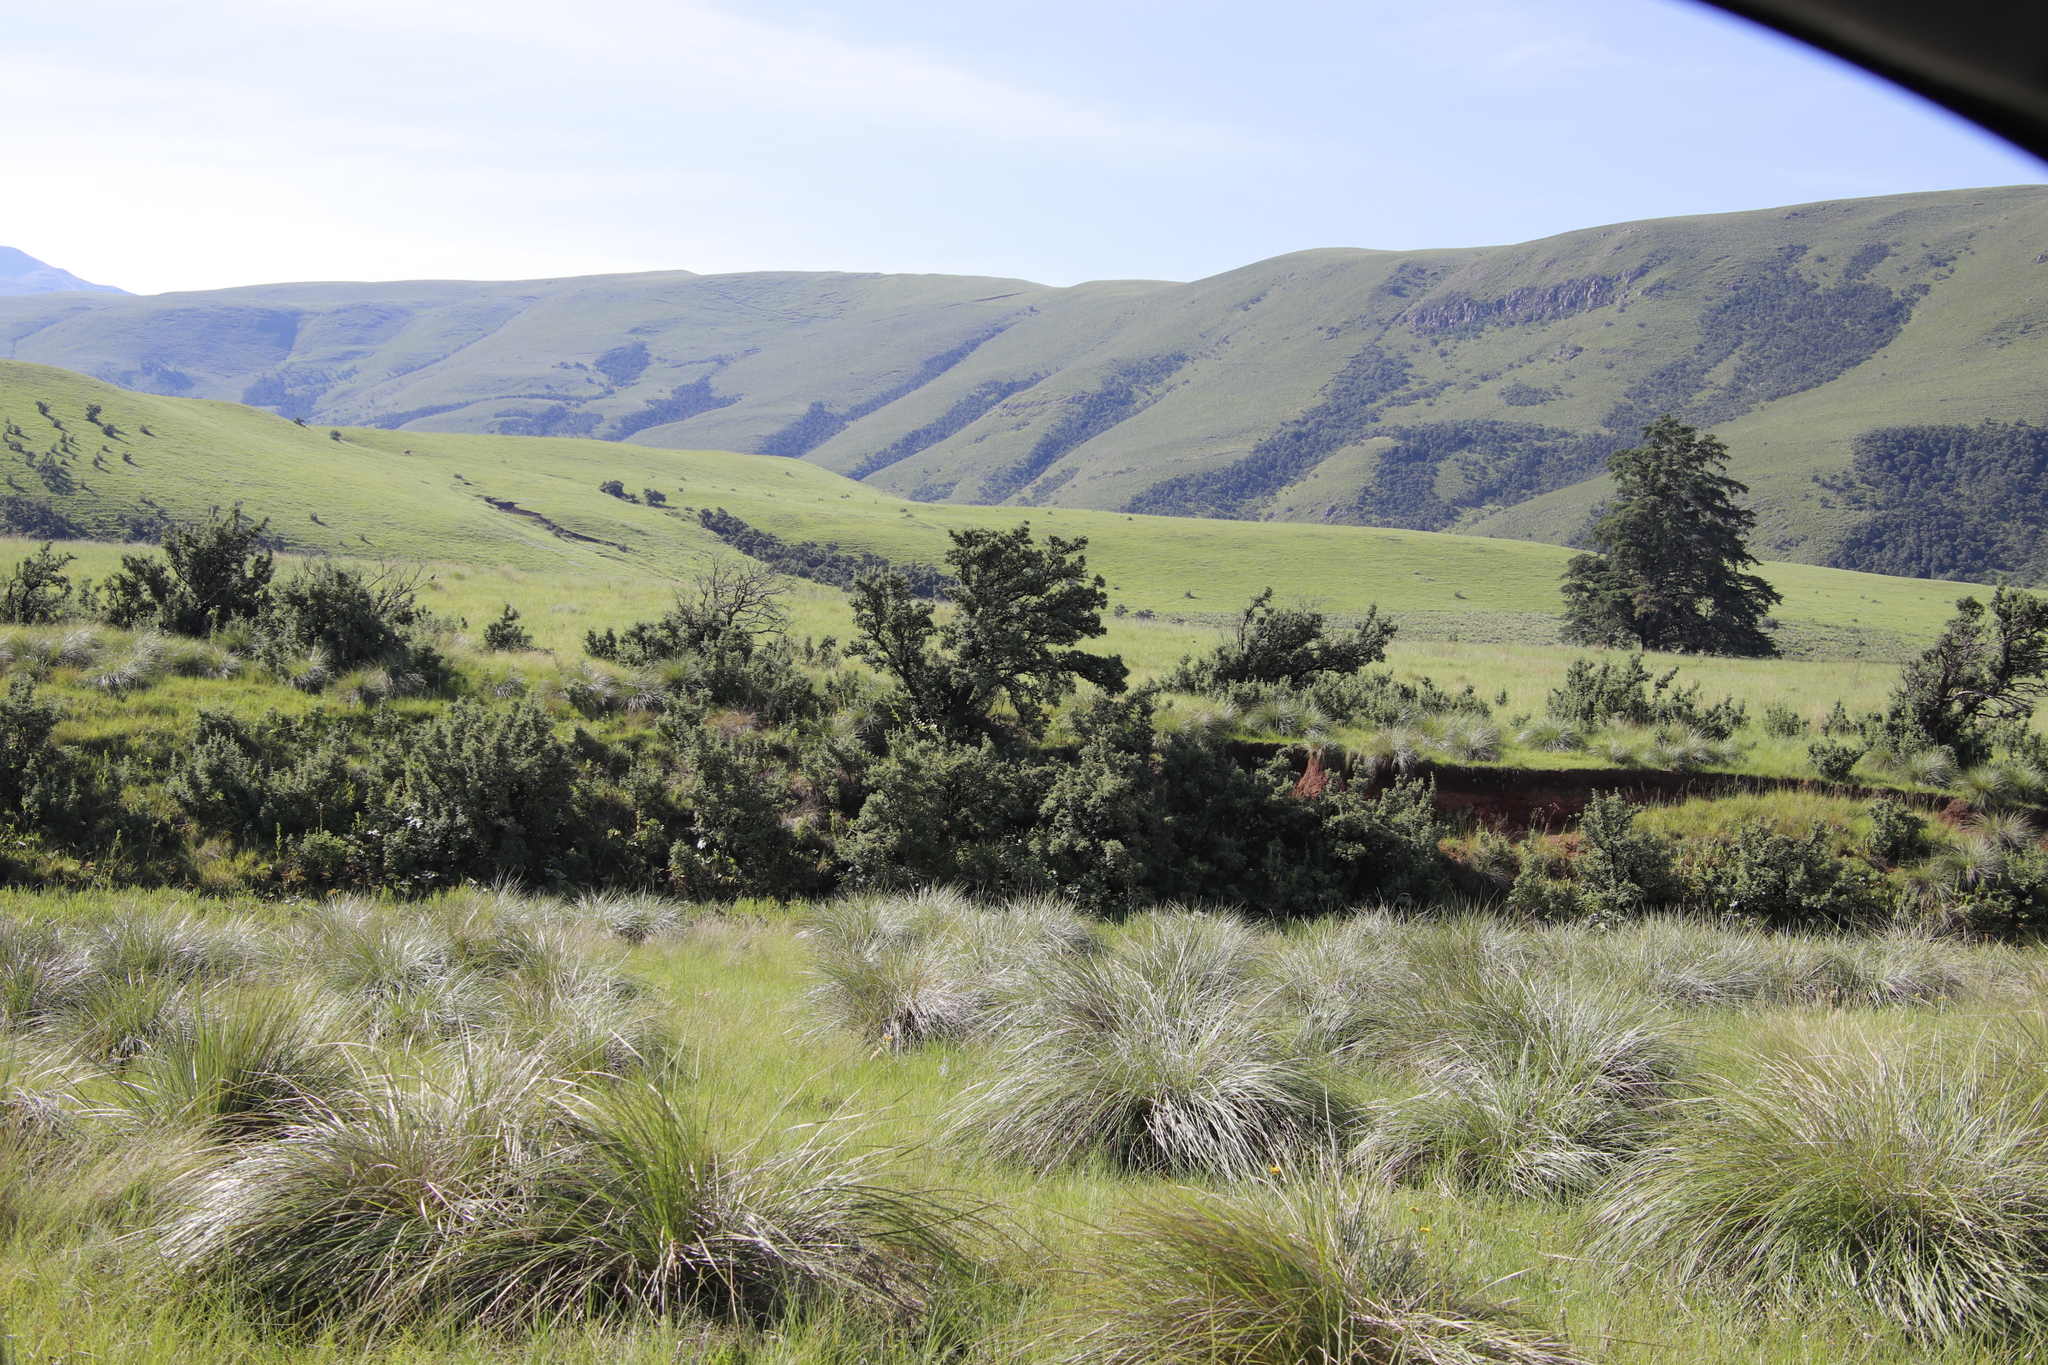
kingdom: Plantae
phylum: Tracheophyta
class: Magnoliopsida
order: Rosales
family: Rosaceae
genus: Leucosidea
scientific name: Leucosidea sericea
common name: Oldwood
